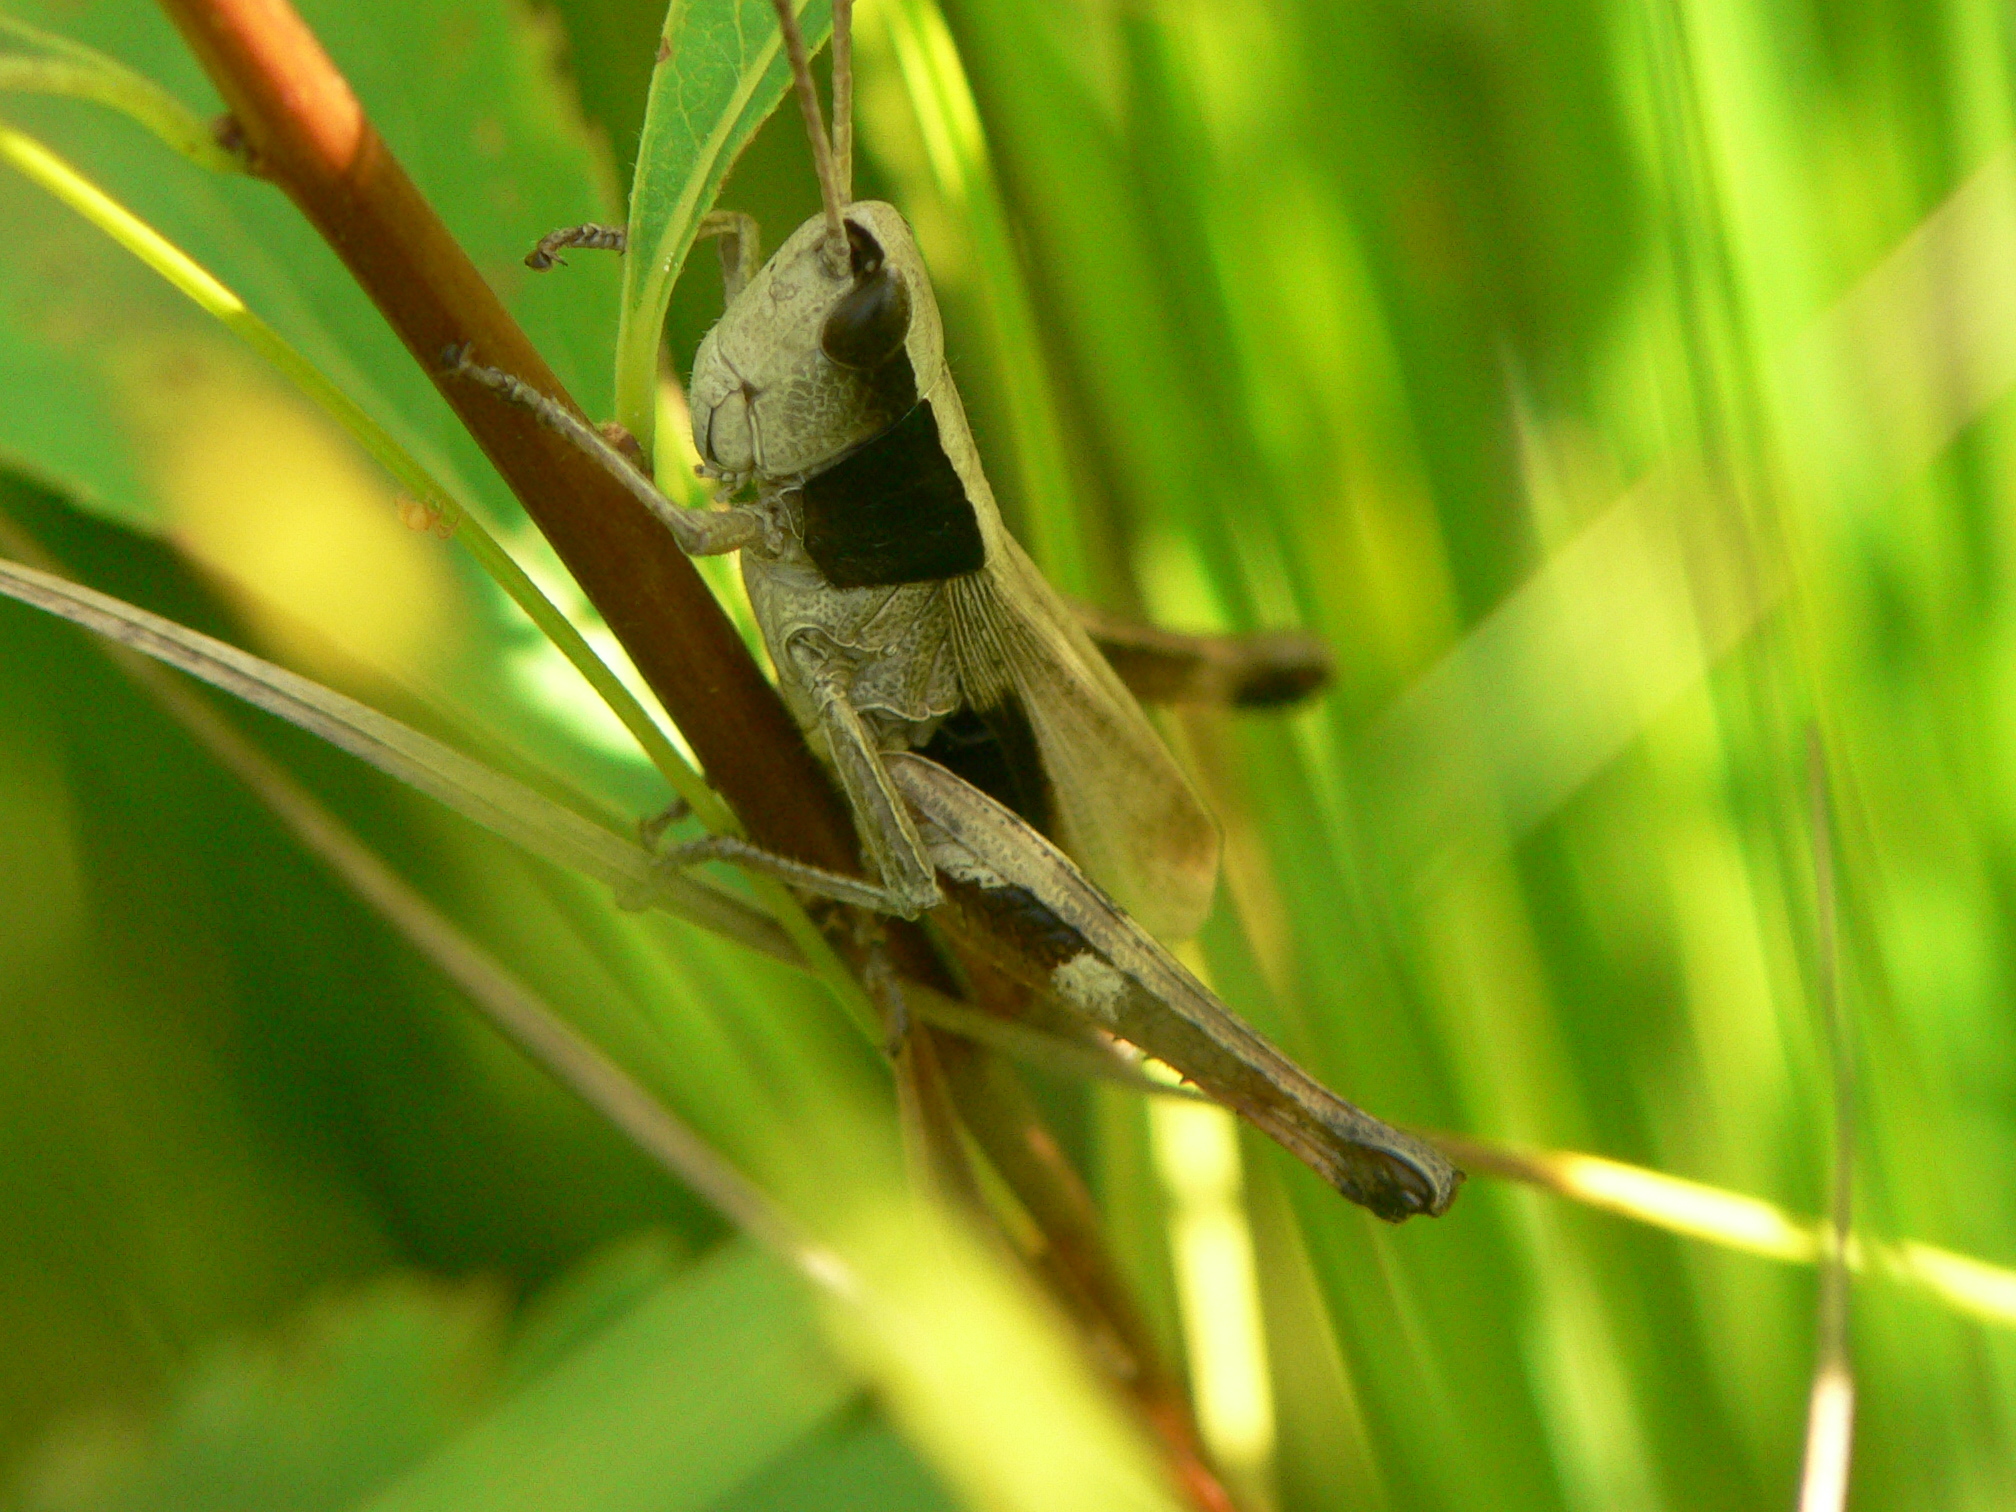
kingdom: Animalia
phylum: Arthropoda
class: Insecta
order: Orthoptera
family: Acrididae
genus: Chloealtis
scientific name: Chloealtis conspersa
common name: Sprinkled broad-winged grasshopper
